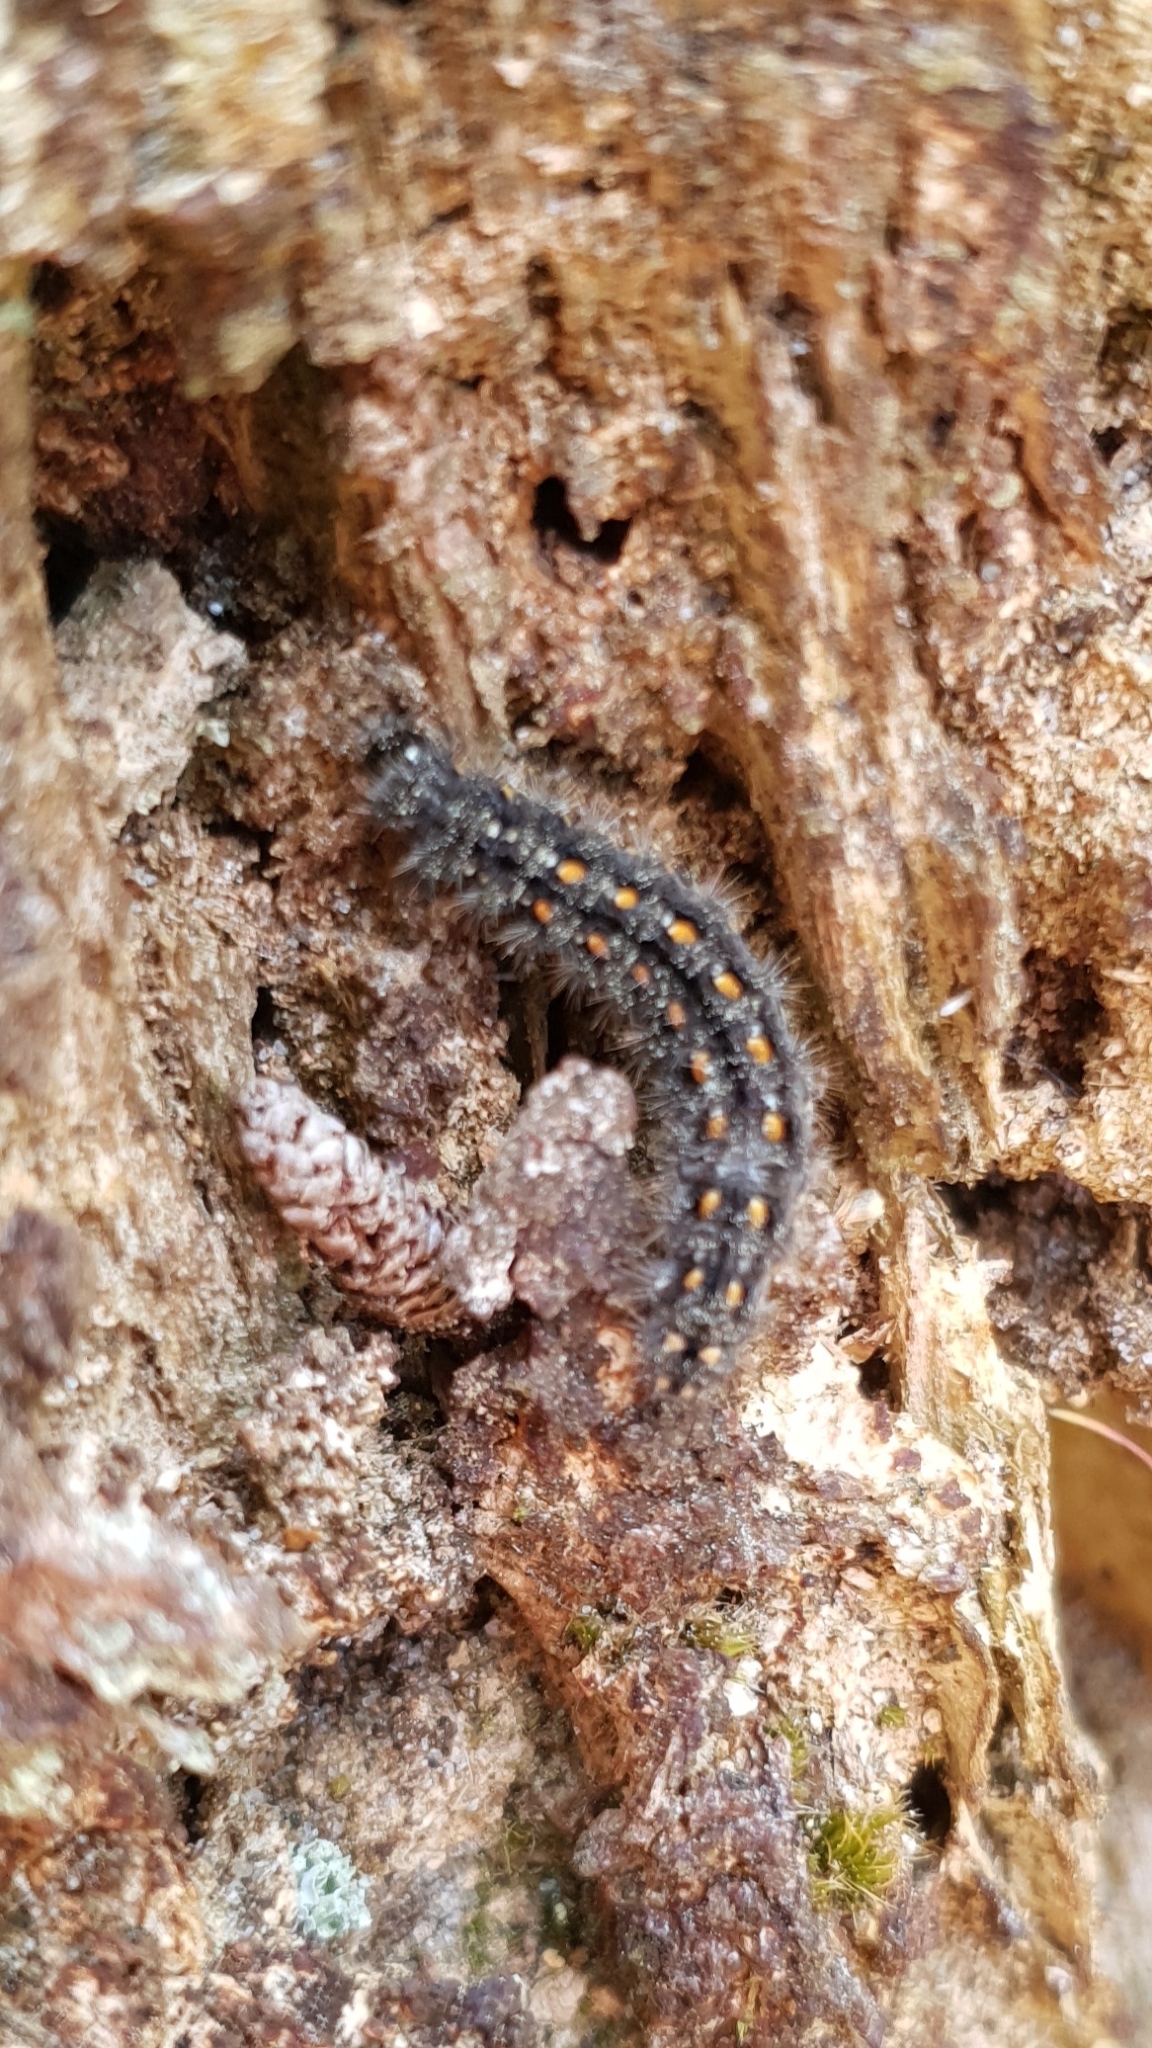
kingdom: Animalia
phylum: Arthropoda
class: Insecta
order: Lepidoptera
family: Erebidae
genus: Manulea
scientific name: Manulea complana
